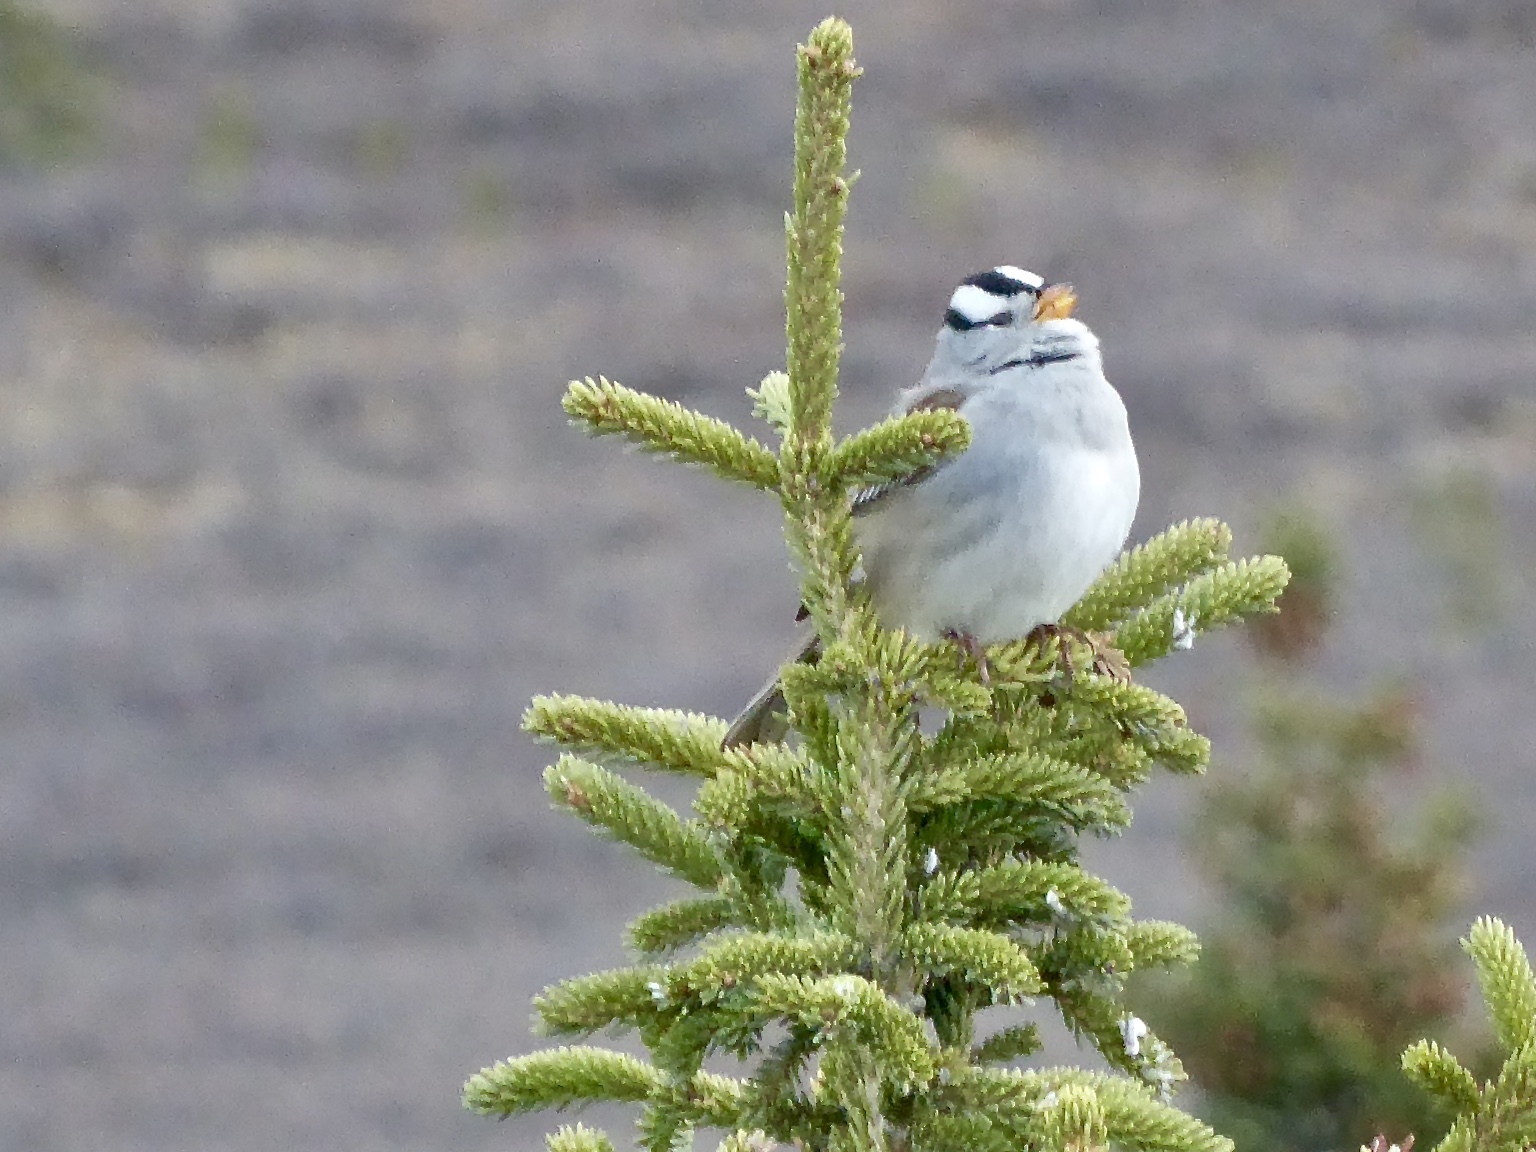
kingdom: Animalia
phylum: Chordata
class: Aves
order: Passeriformes
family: Passerellidae
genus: Zonotrichia
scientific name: Zonotrichia leucophrys
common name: White-crowned sparrow
